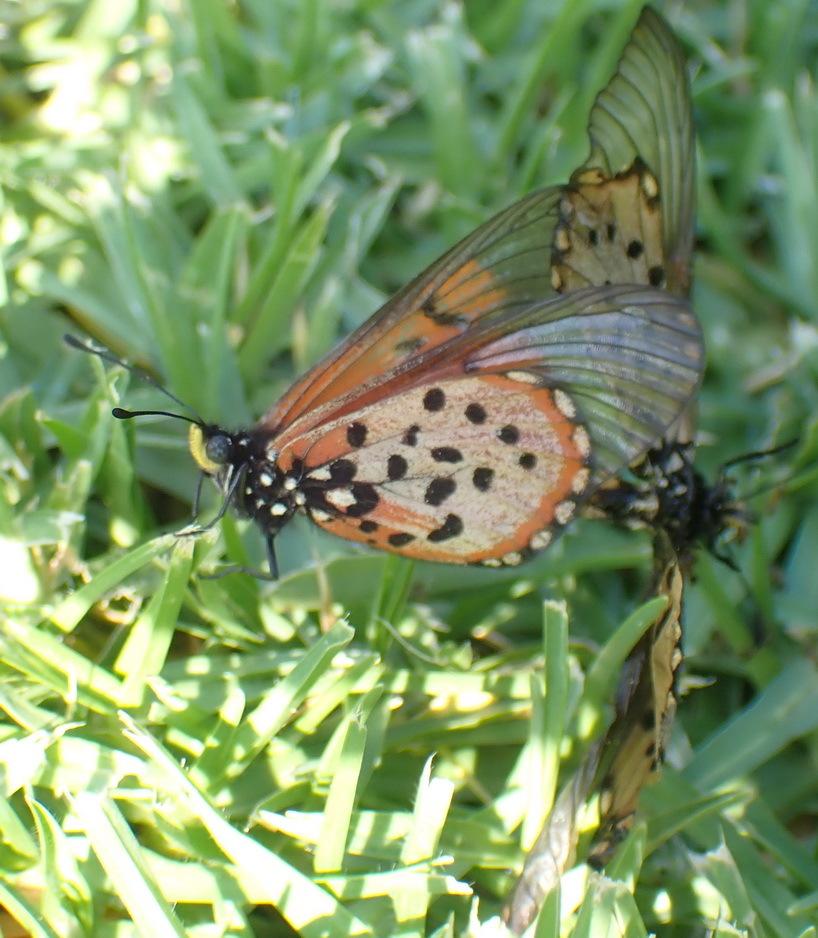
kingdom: Animalia
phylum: Arthropoda
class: Insecta
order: Lepidoptera
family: Nymphalidae
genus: Acraea
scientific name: Acraea horta
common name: Garden acraea
